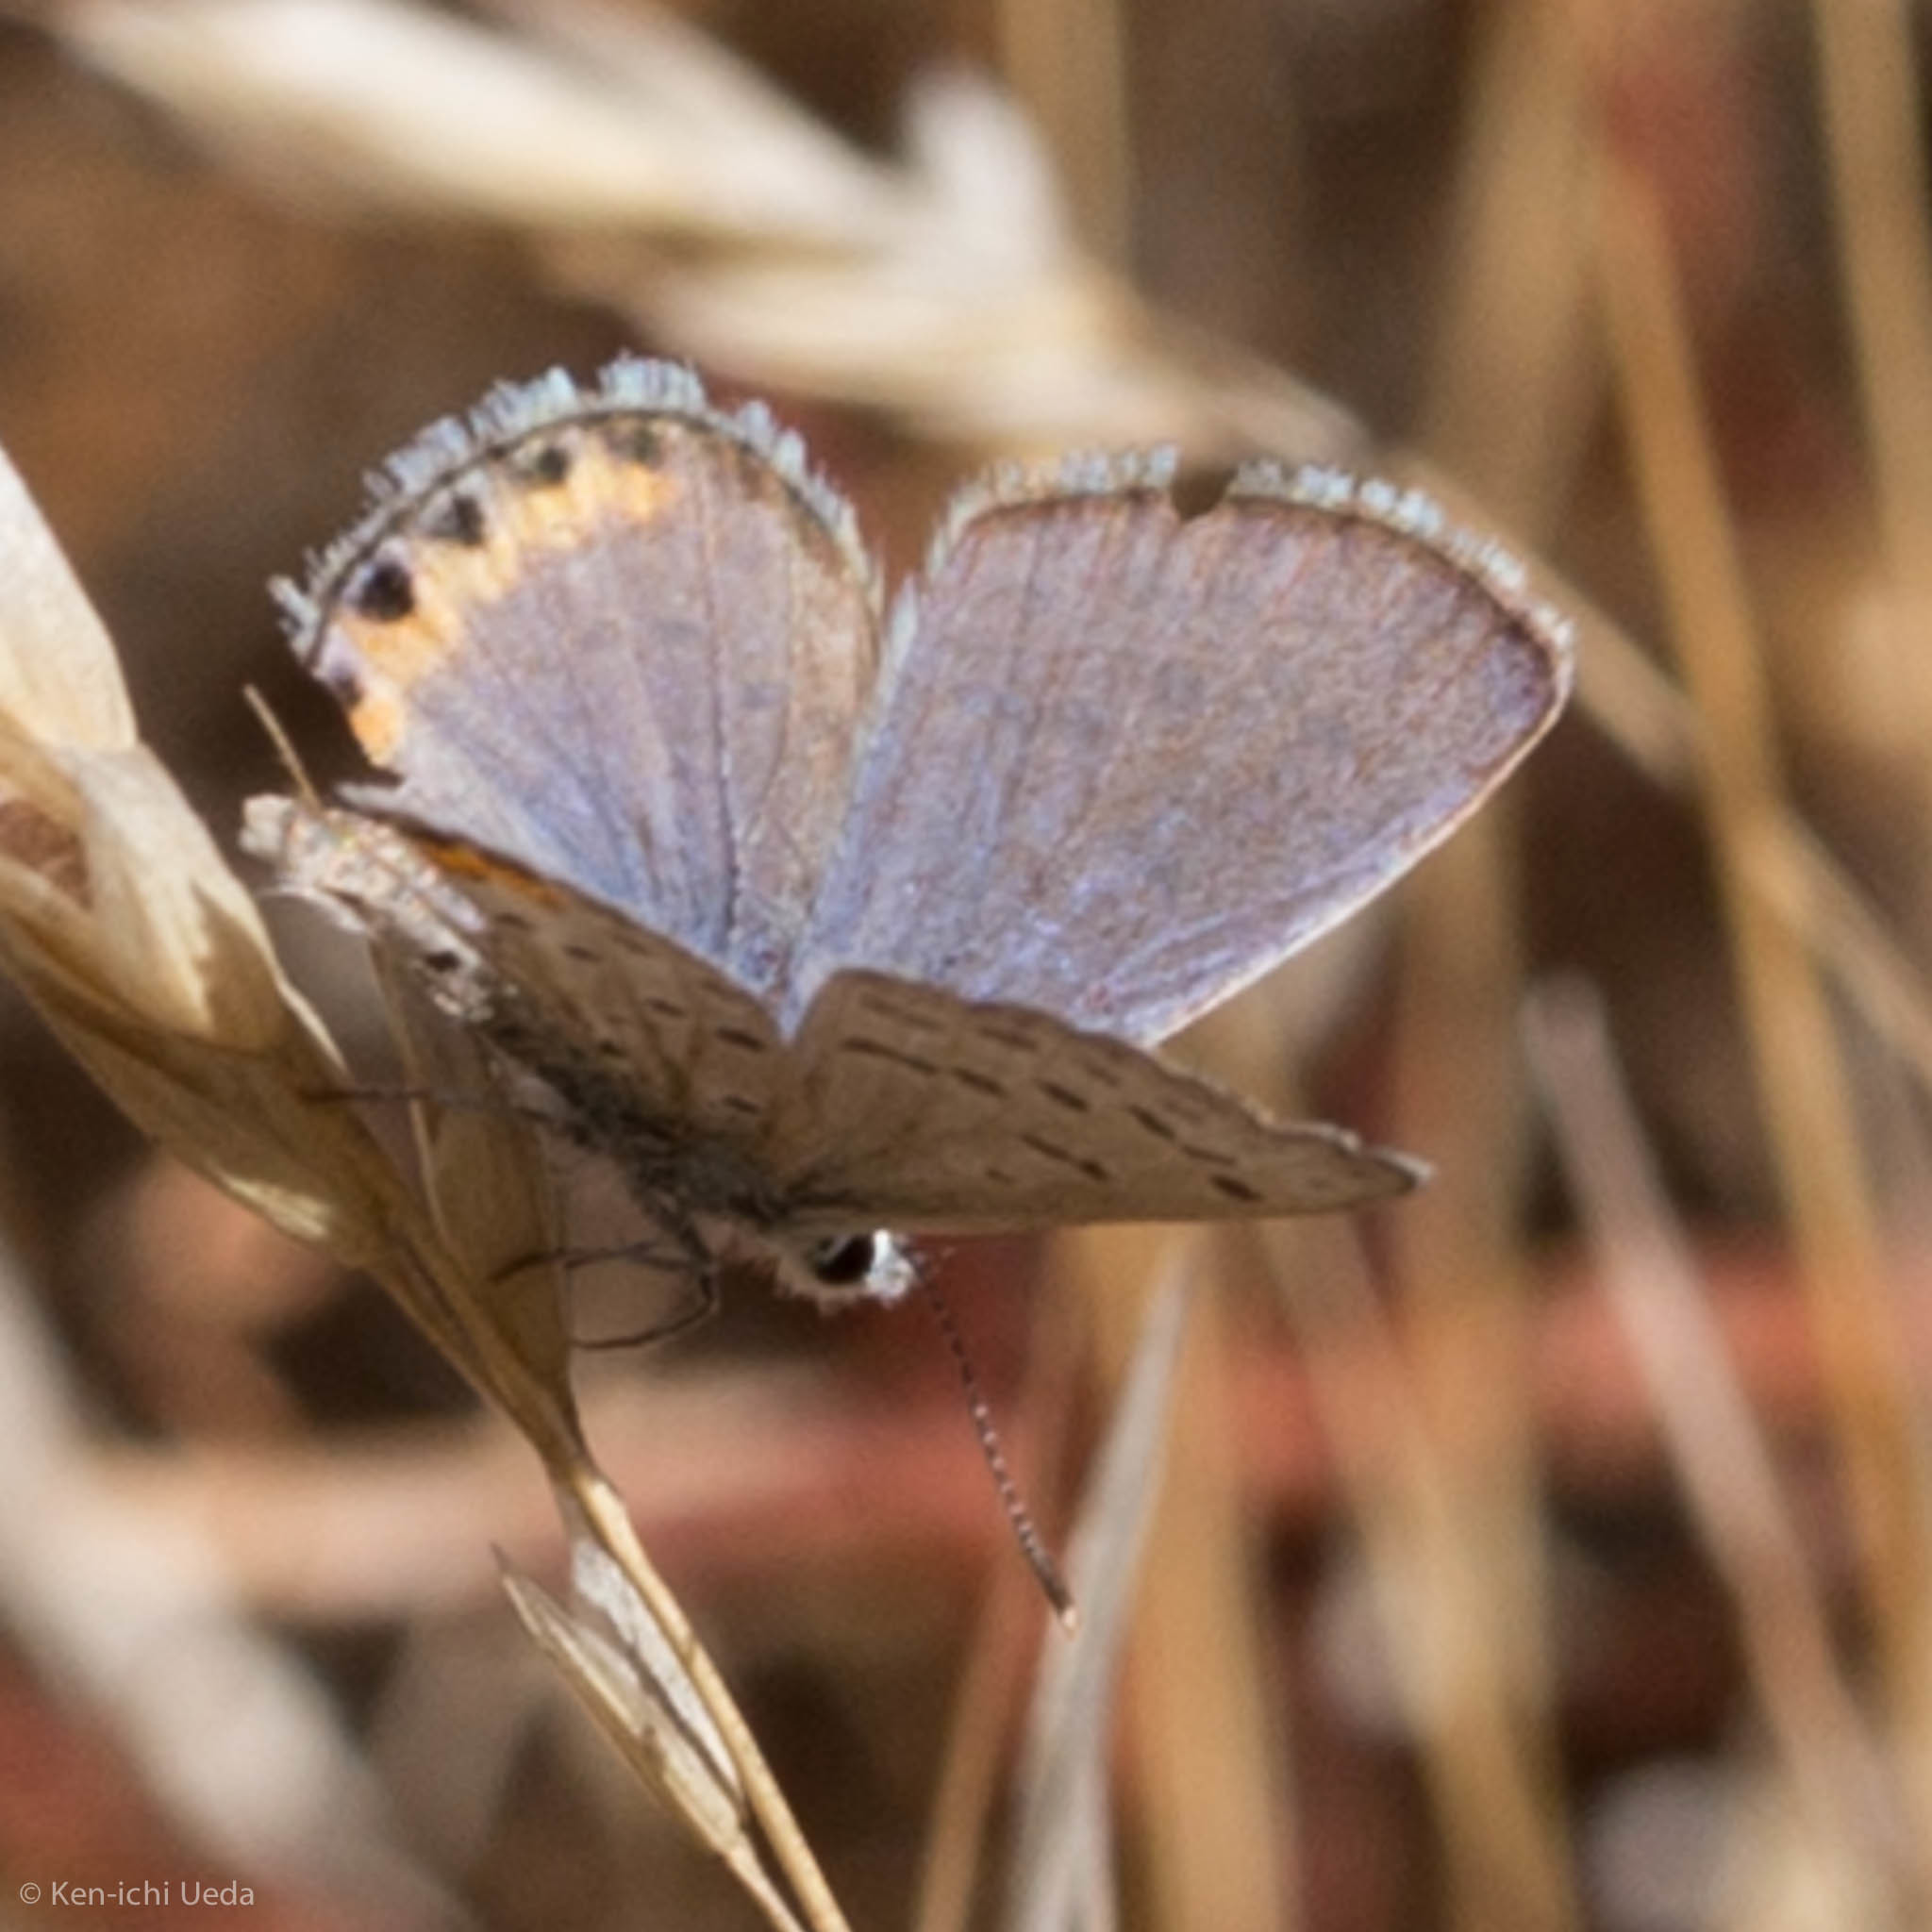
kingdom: Animalia
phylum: Arthropoda
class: Insecta
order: Lepidoptera
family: Lycaenidae
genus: Icaricia
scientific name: Icaricia acmon
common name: Acmon blue
